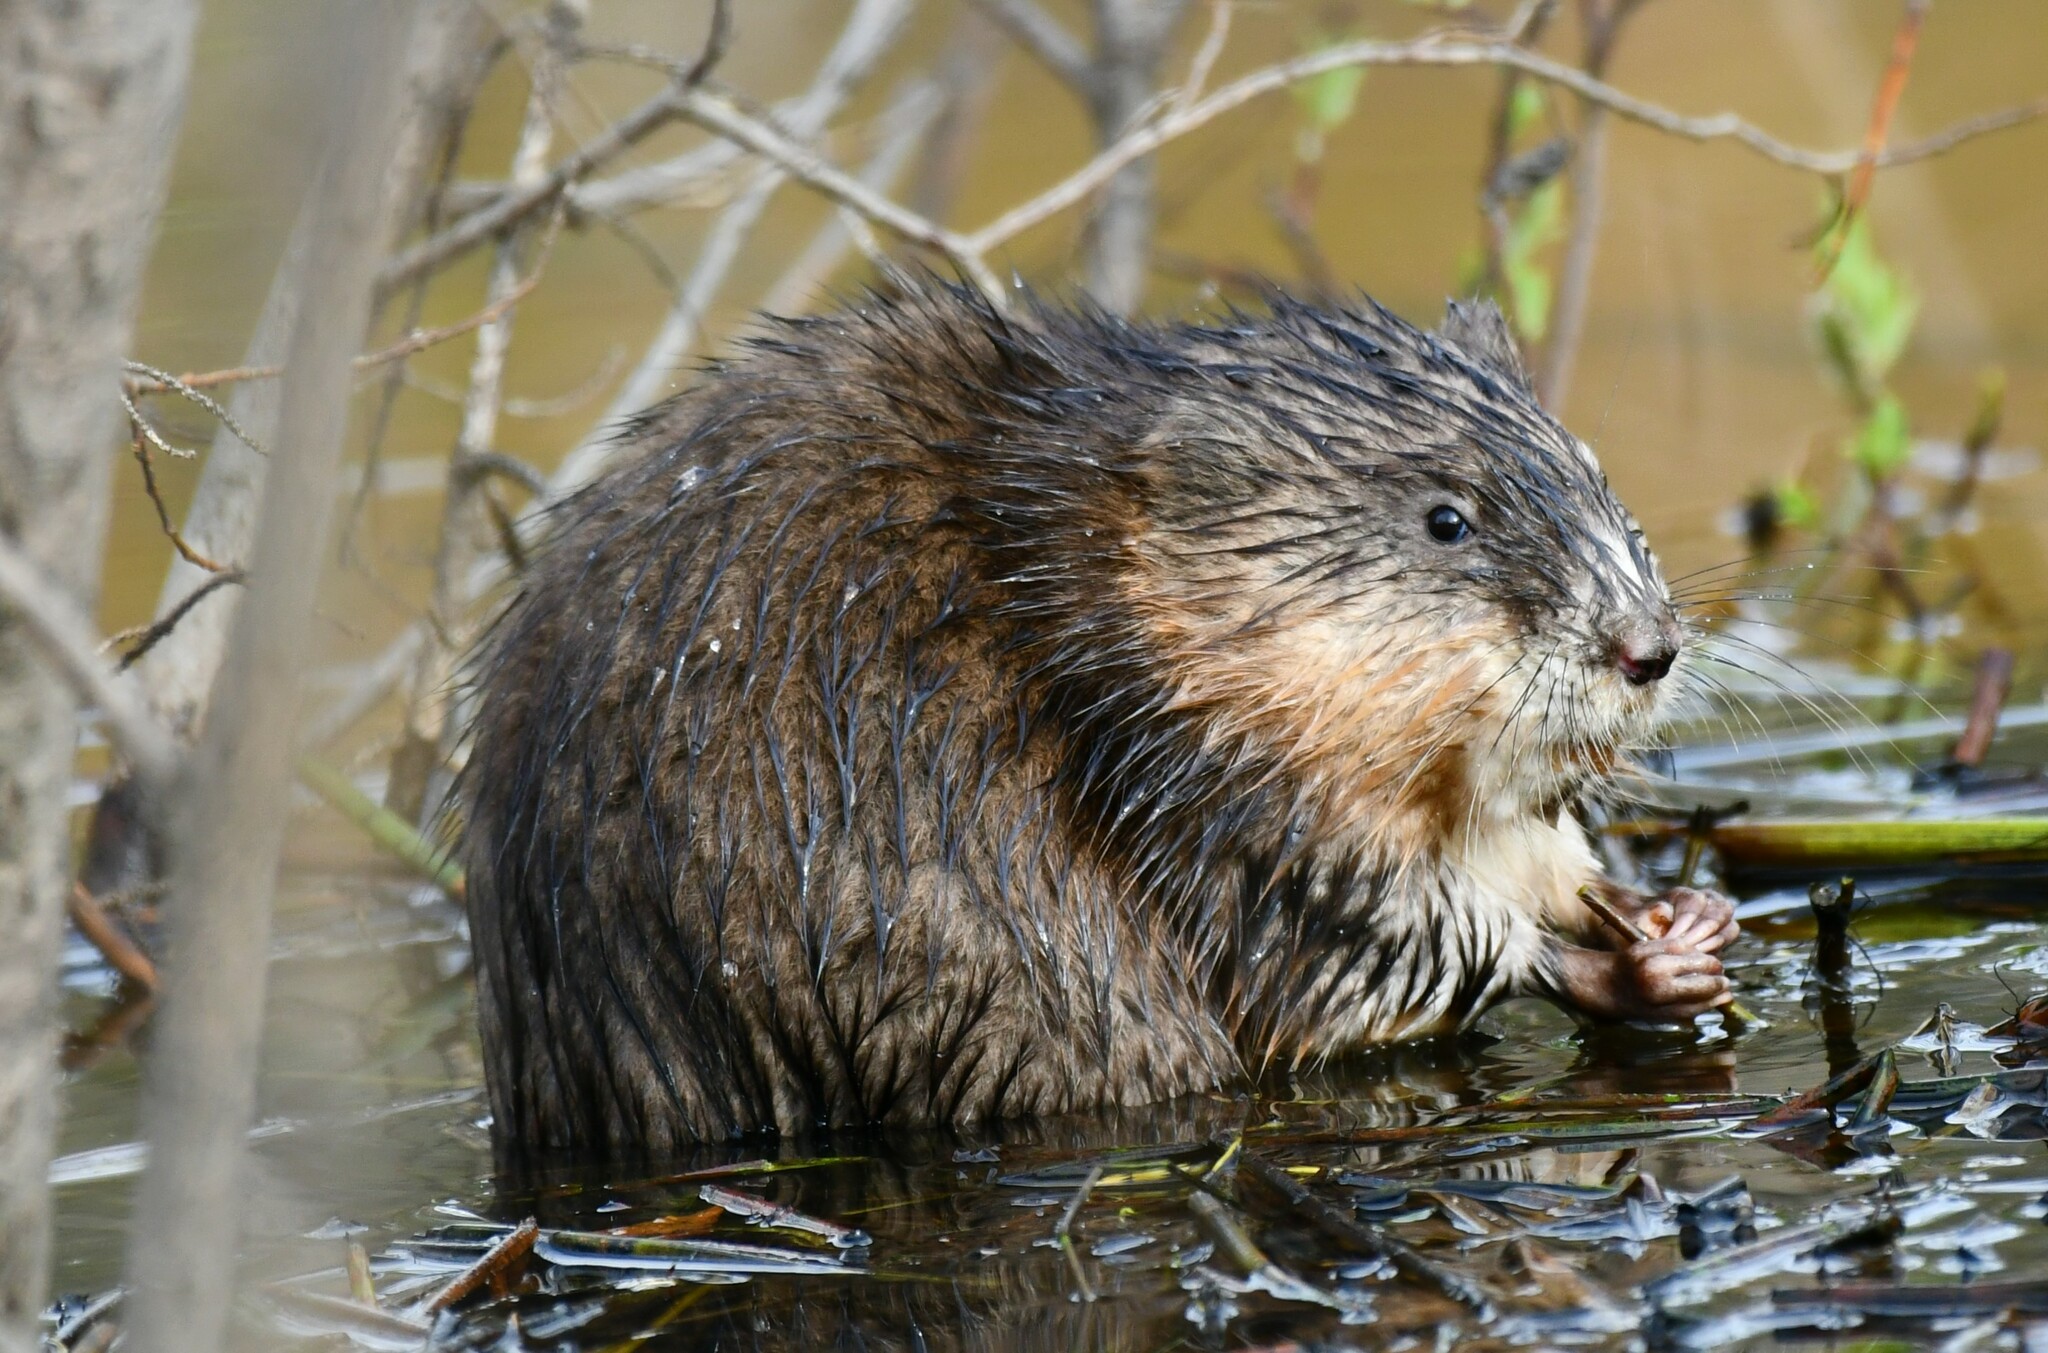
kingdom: Animalia
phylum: Chordata
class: Mammalia
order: Rodentia
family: Cricetidae
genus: Ondatra
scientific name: Ondatra zibethicus
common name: Muskrat
